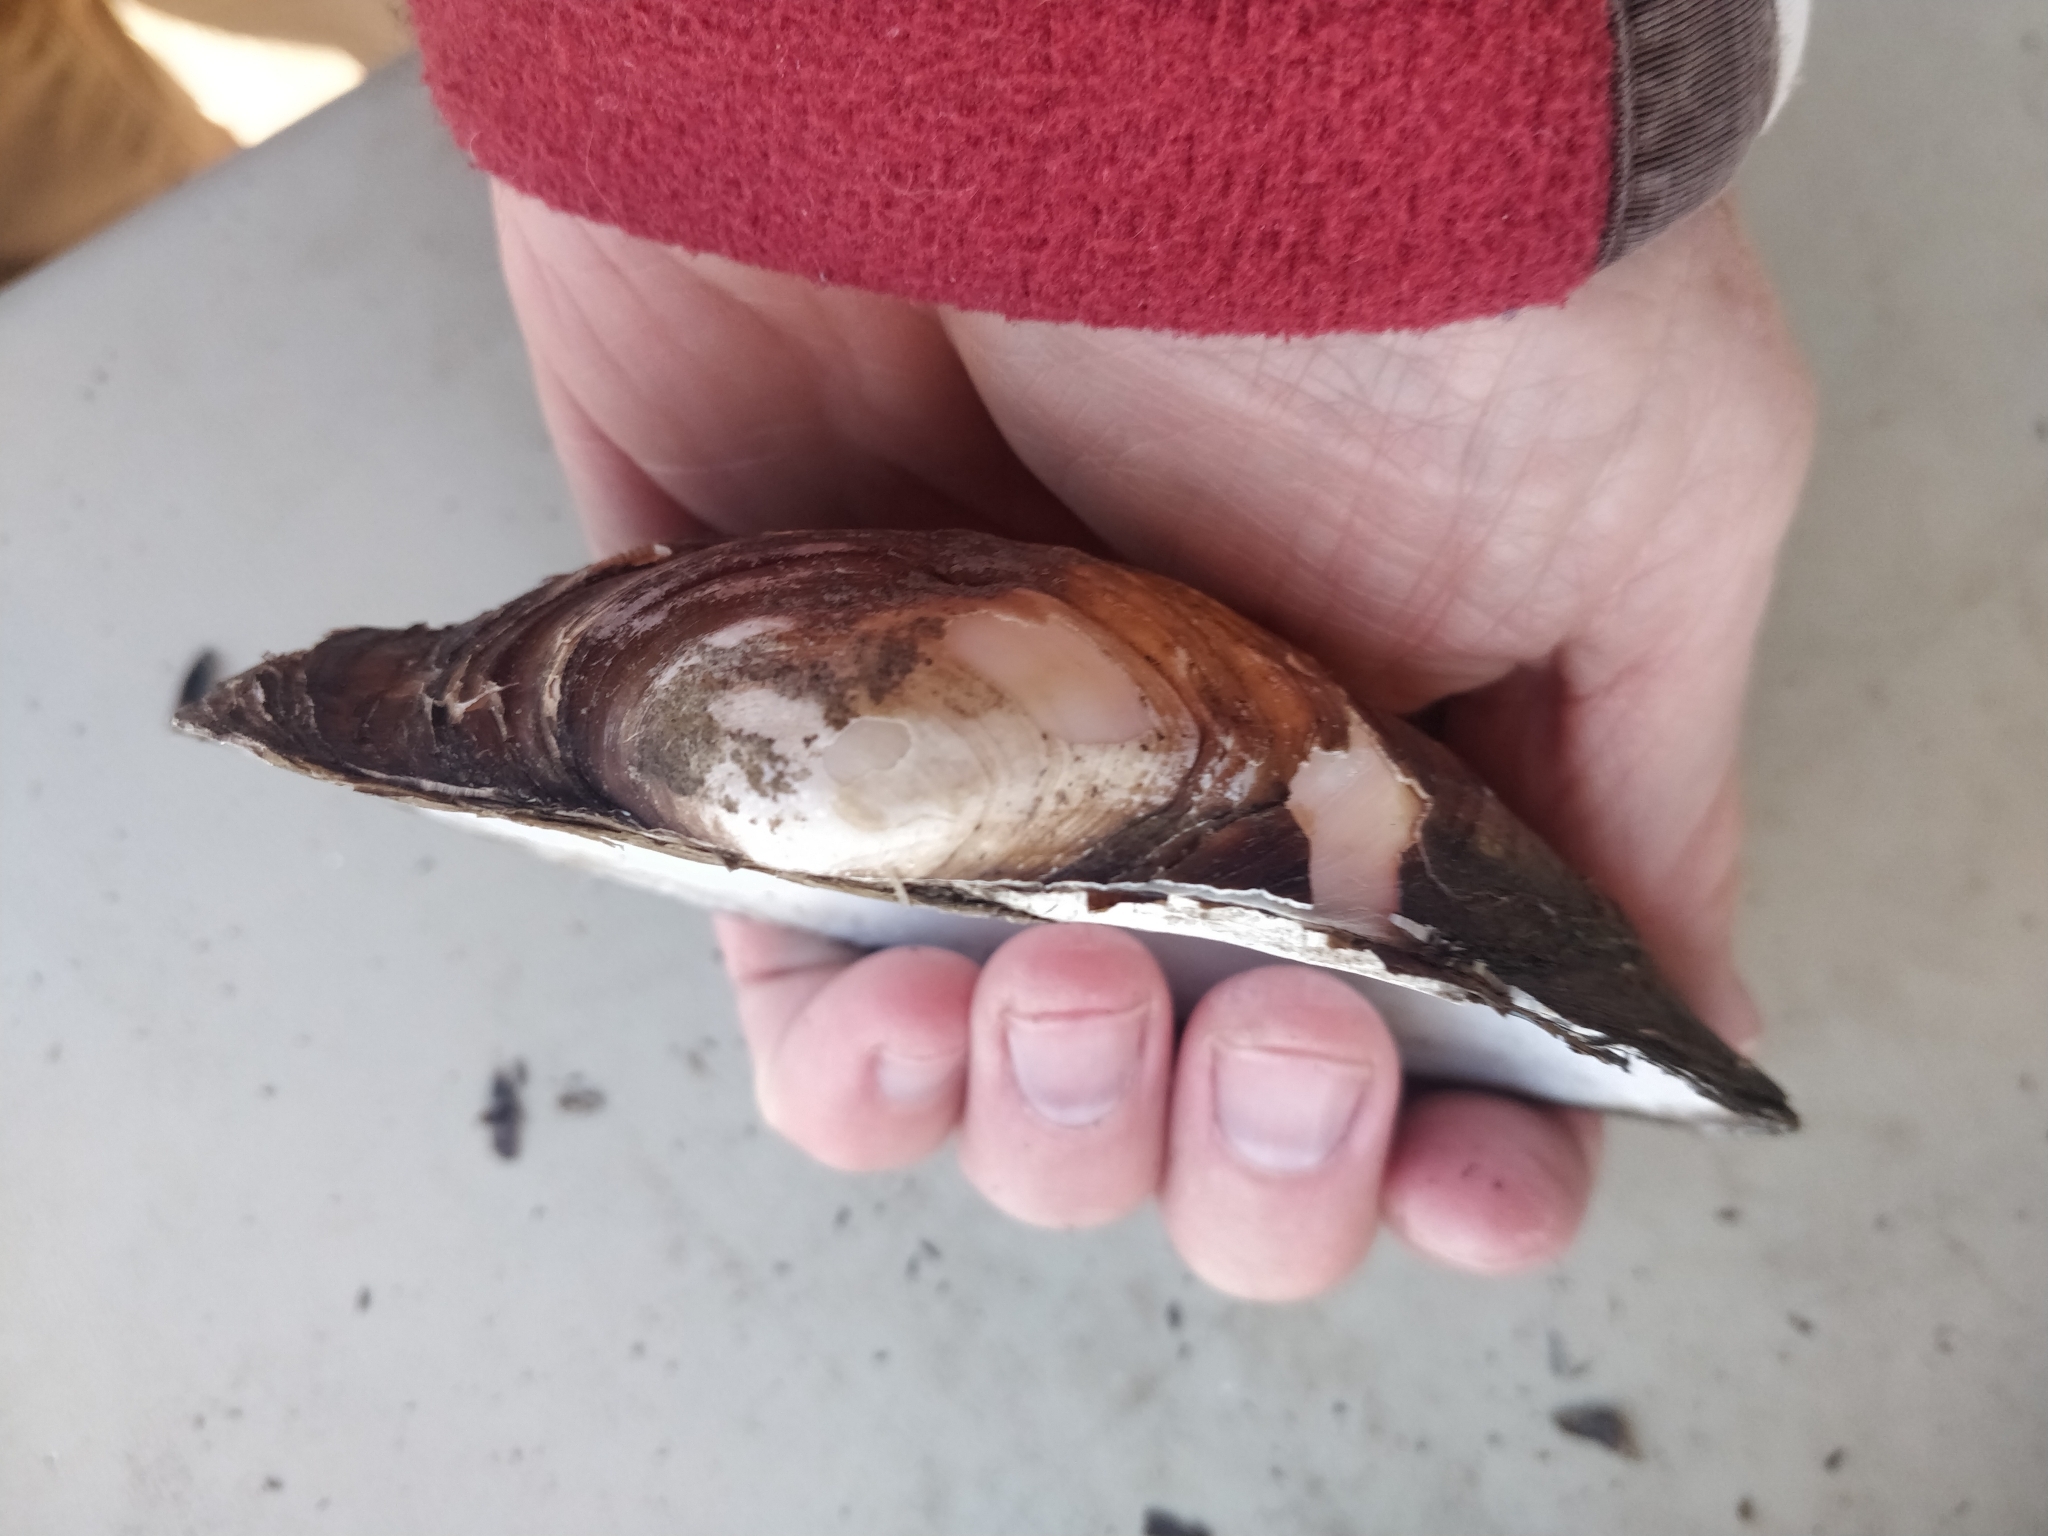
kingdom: Animalia
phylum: Mollusca
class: Bivalvia
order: Unionida
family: Unionidae
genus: Pyganodon
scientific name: Pyganodon grandis
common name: Giant floater
